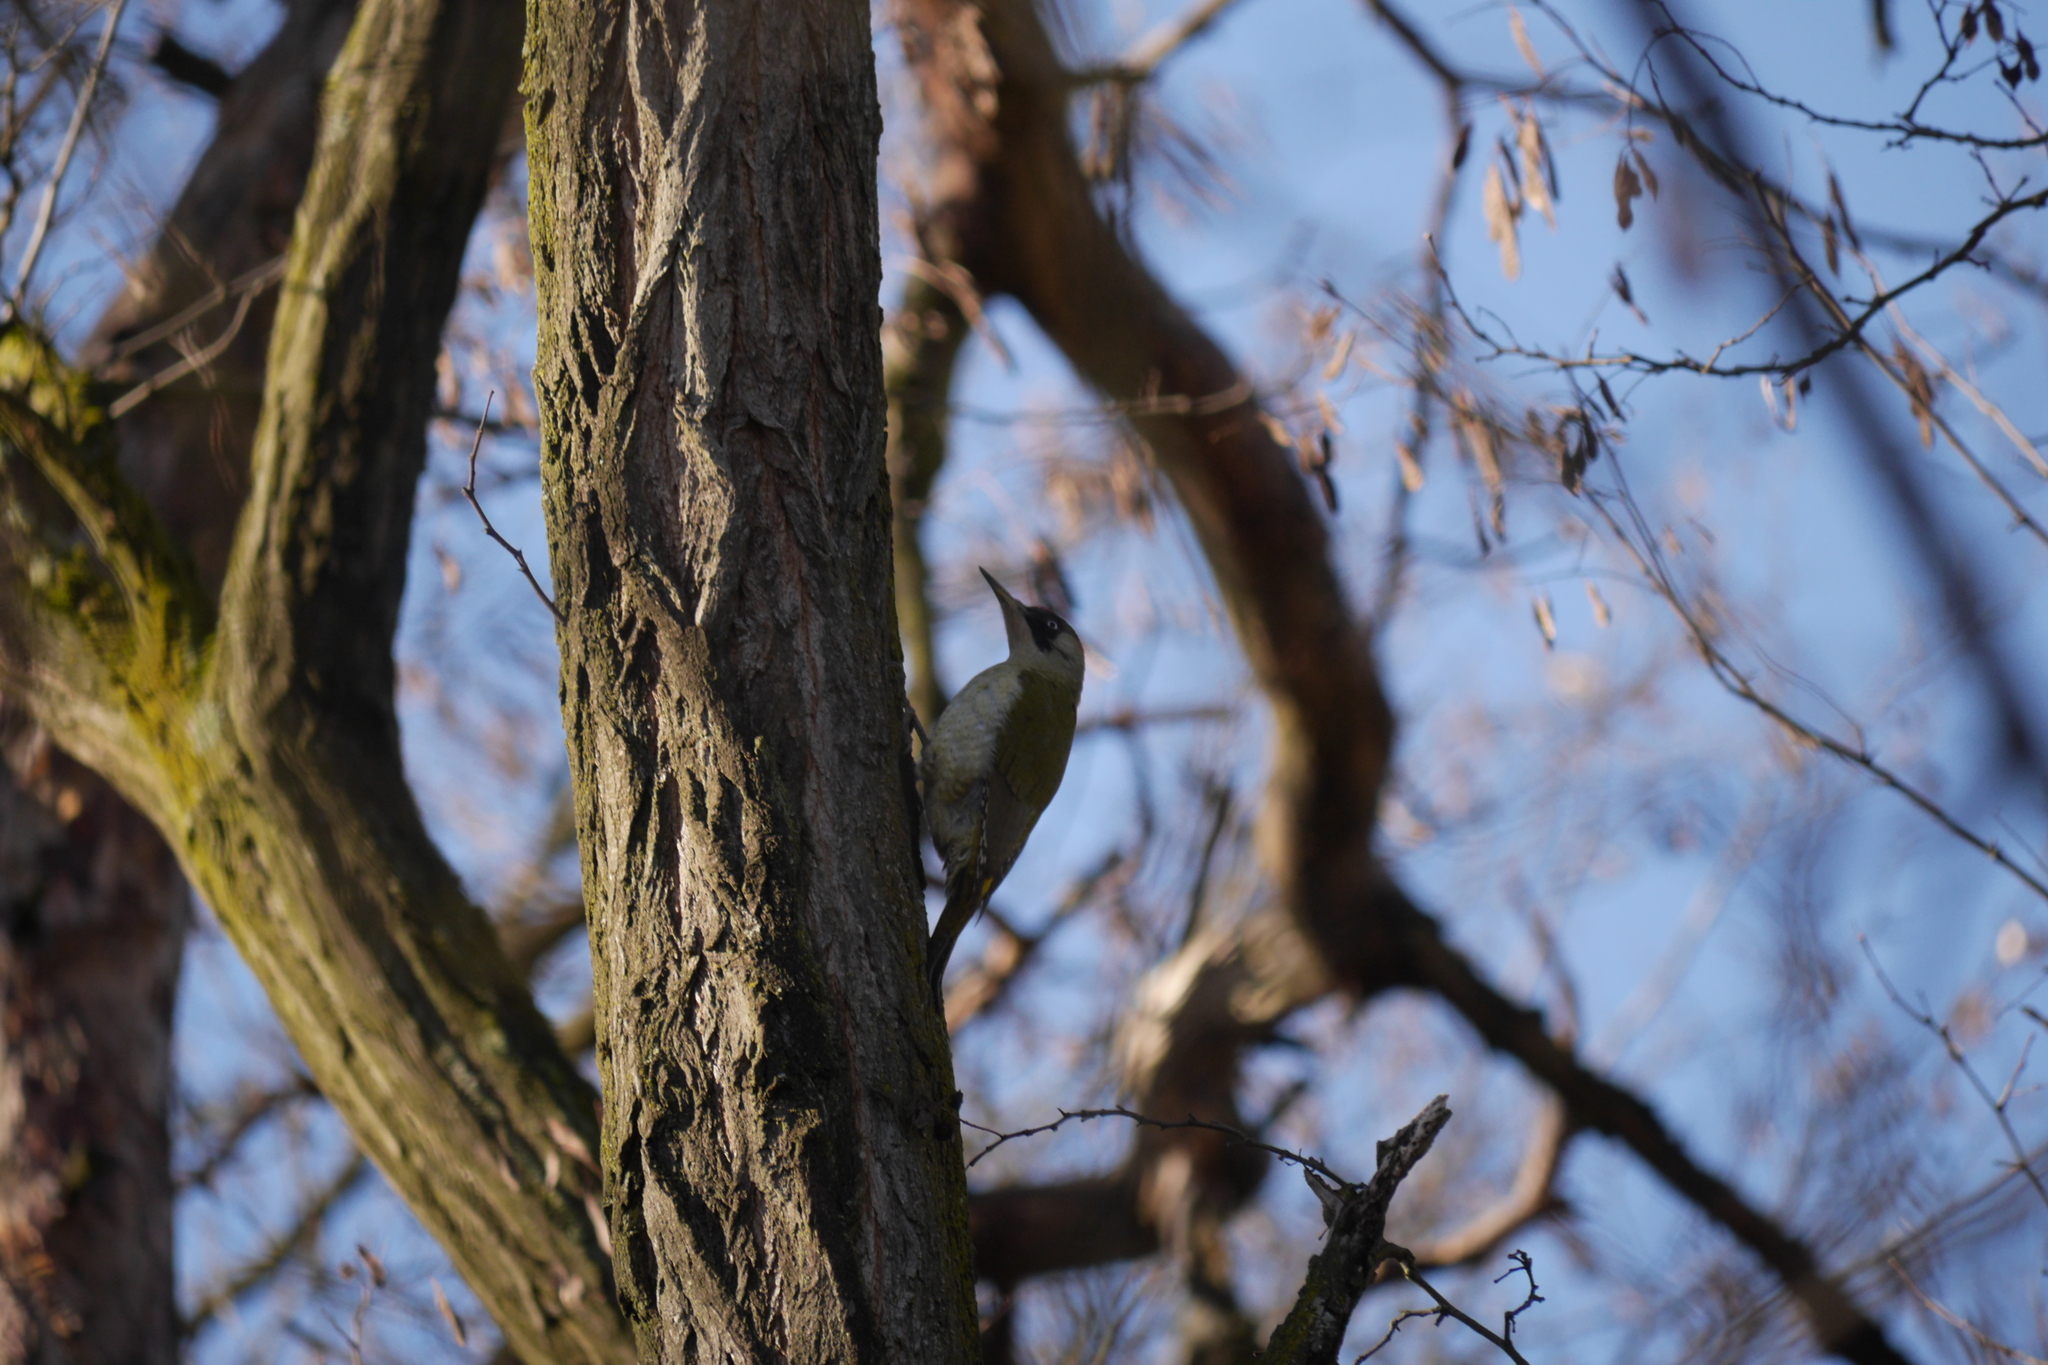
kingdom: Animalia
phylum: Chordata
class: Aves
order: Piciformes
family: Picidae
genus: Picus
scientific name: Picus viridis
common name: European green woodpecker
